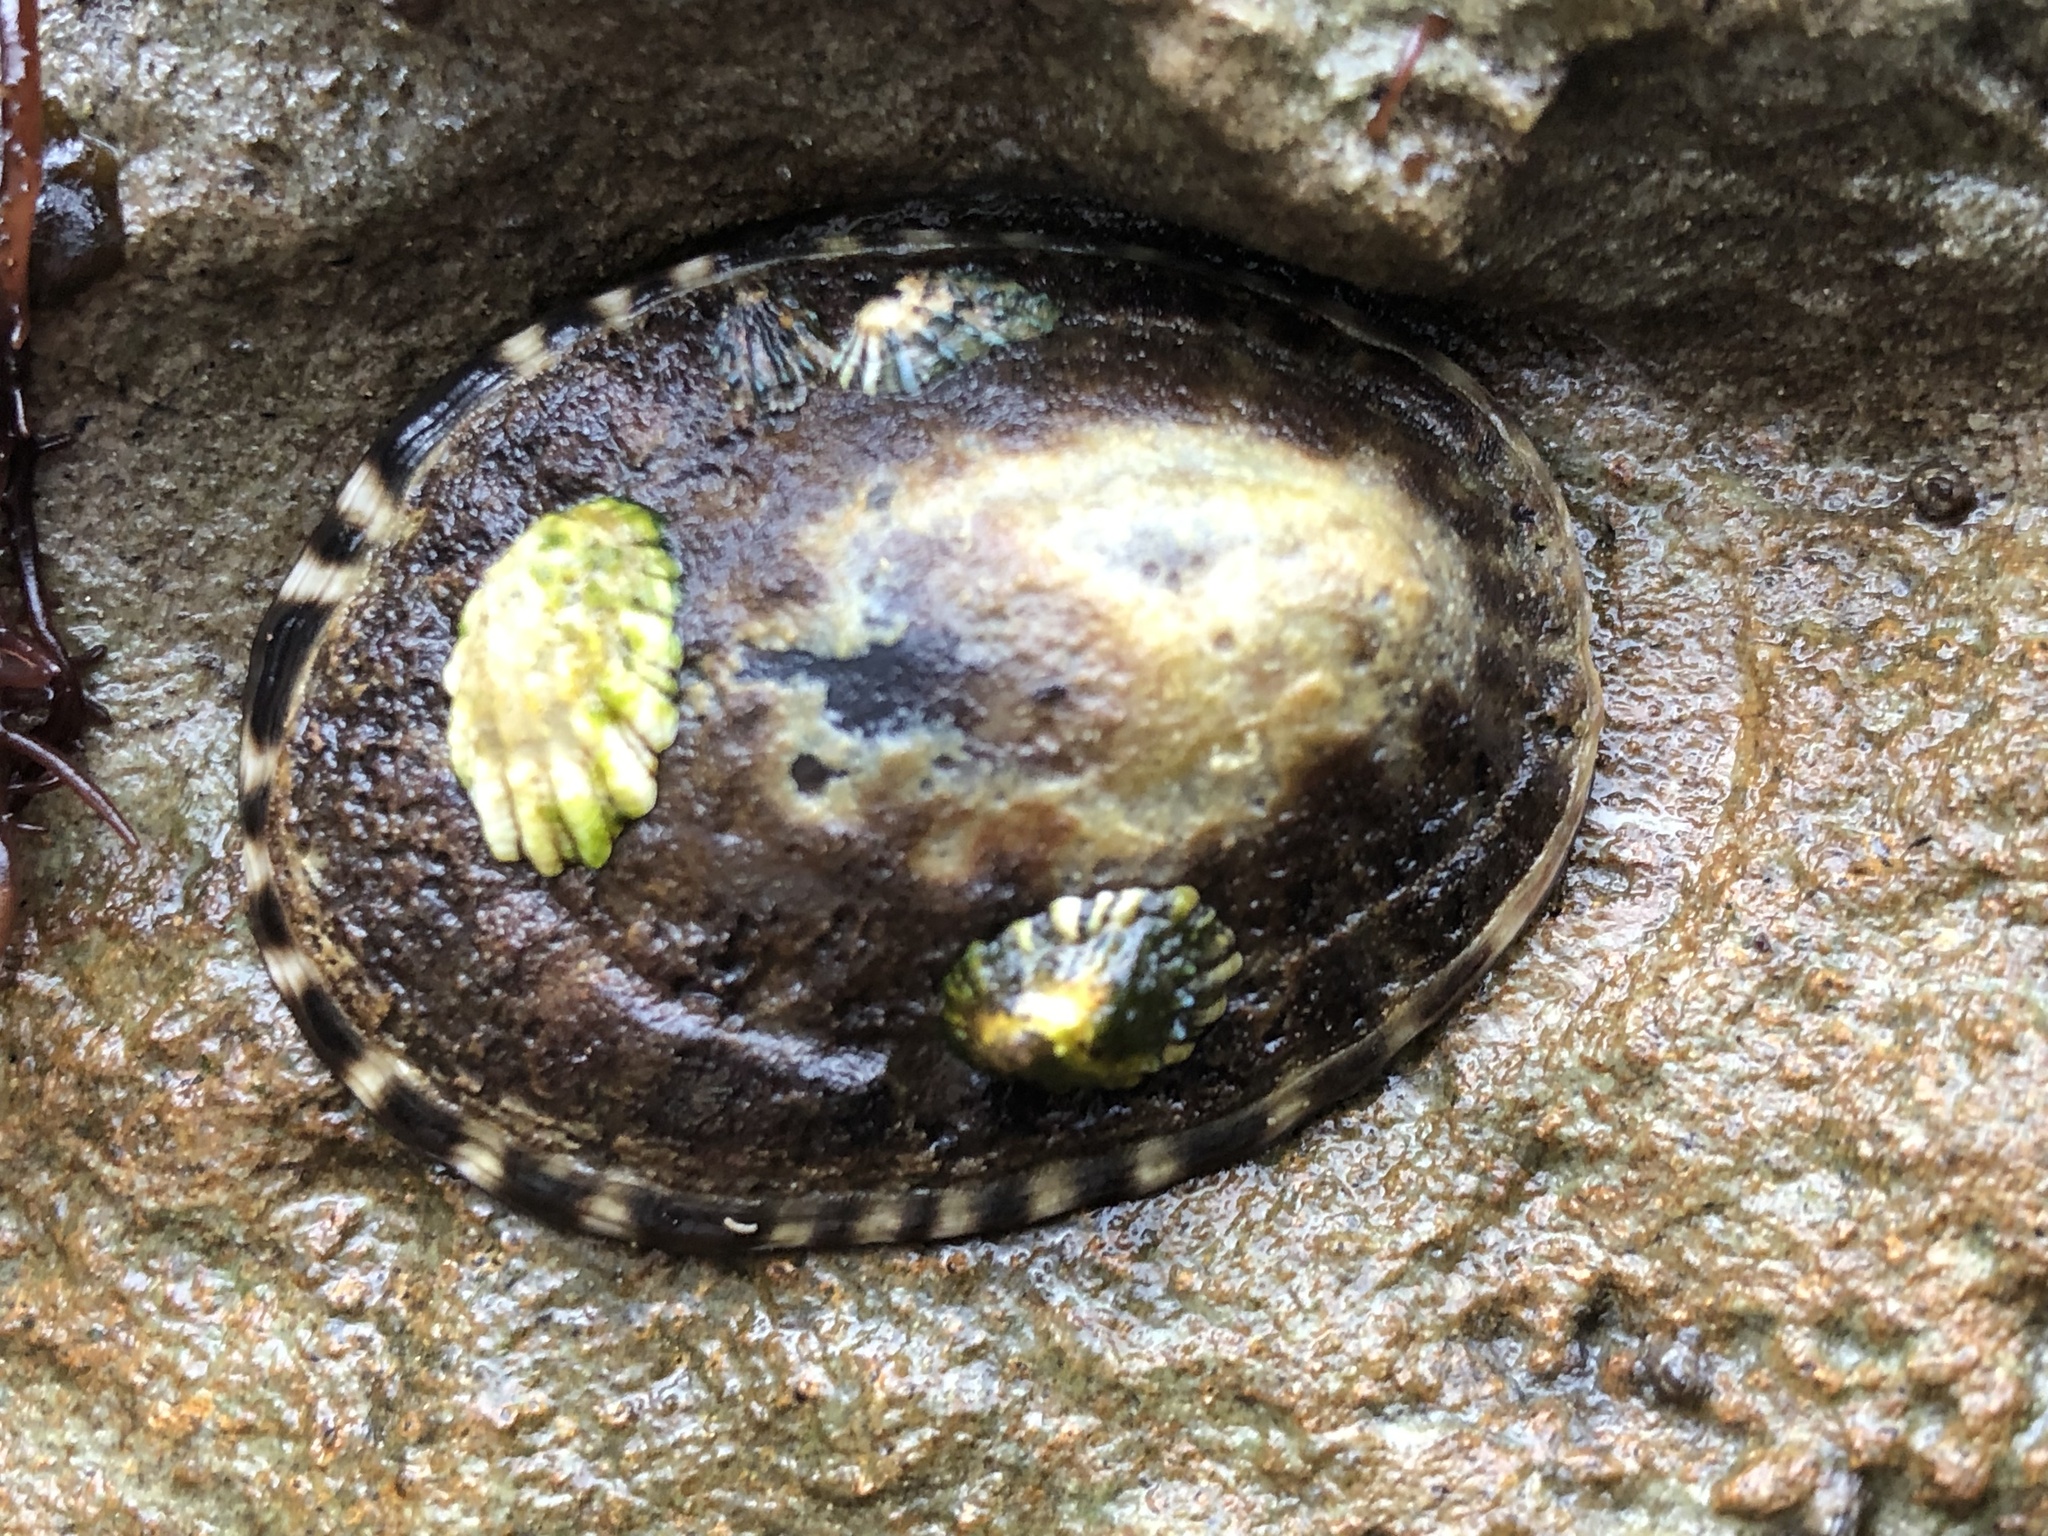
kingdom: Animalia
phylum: Mollusca
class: Gastropoda
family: Lottiidae
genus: Lottia
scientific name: Lottia gigantea
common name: Owl limpet
